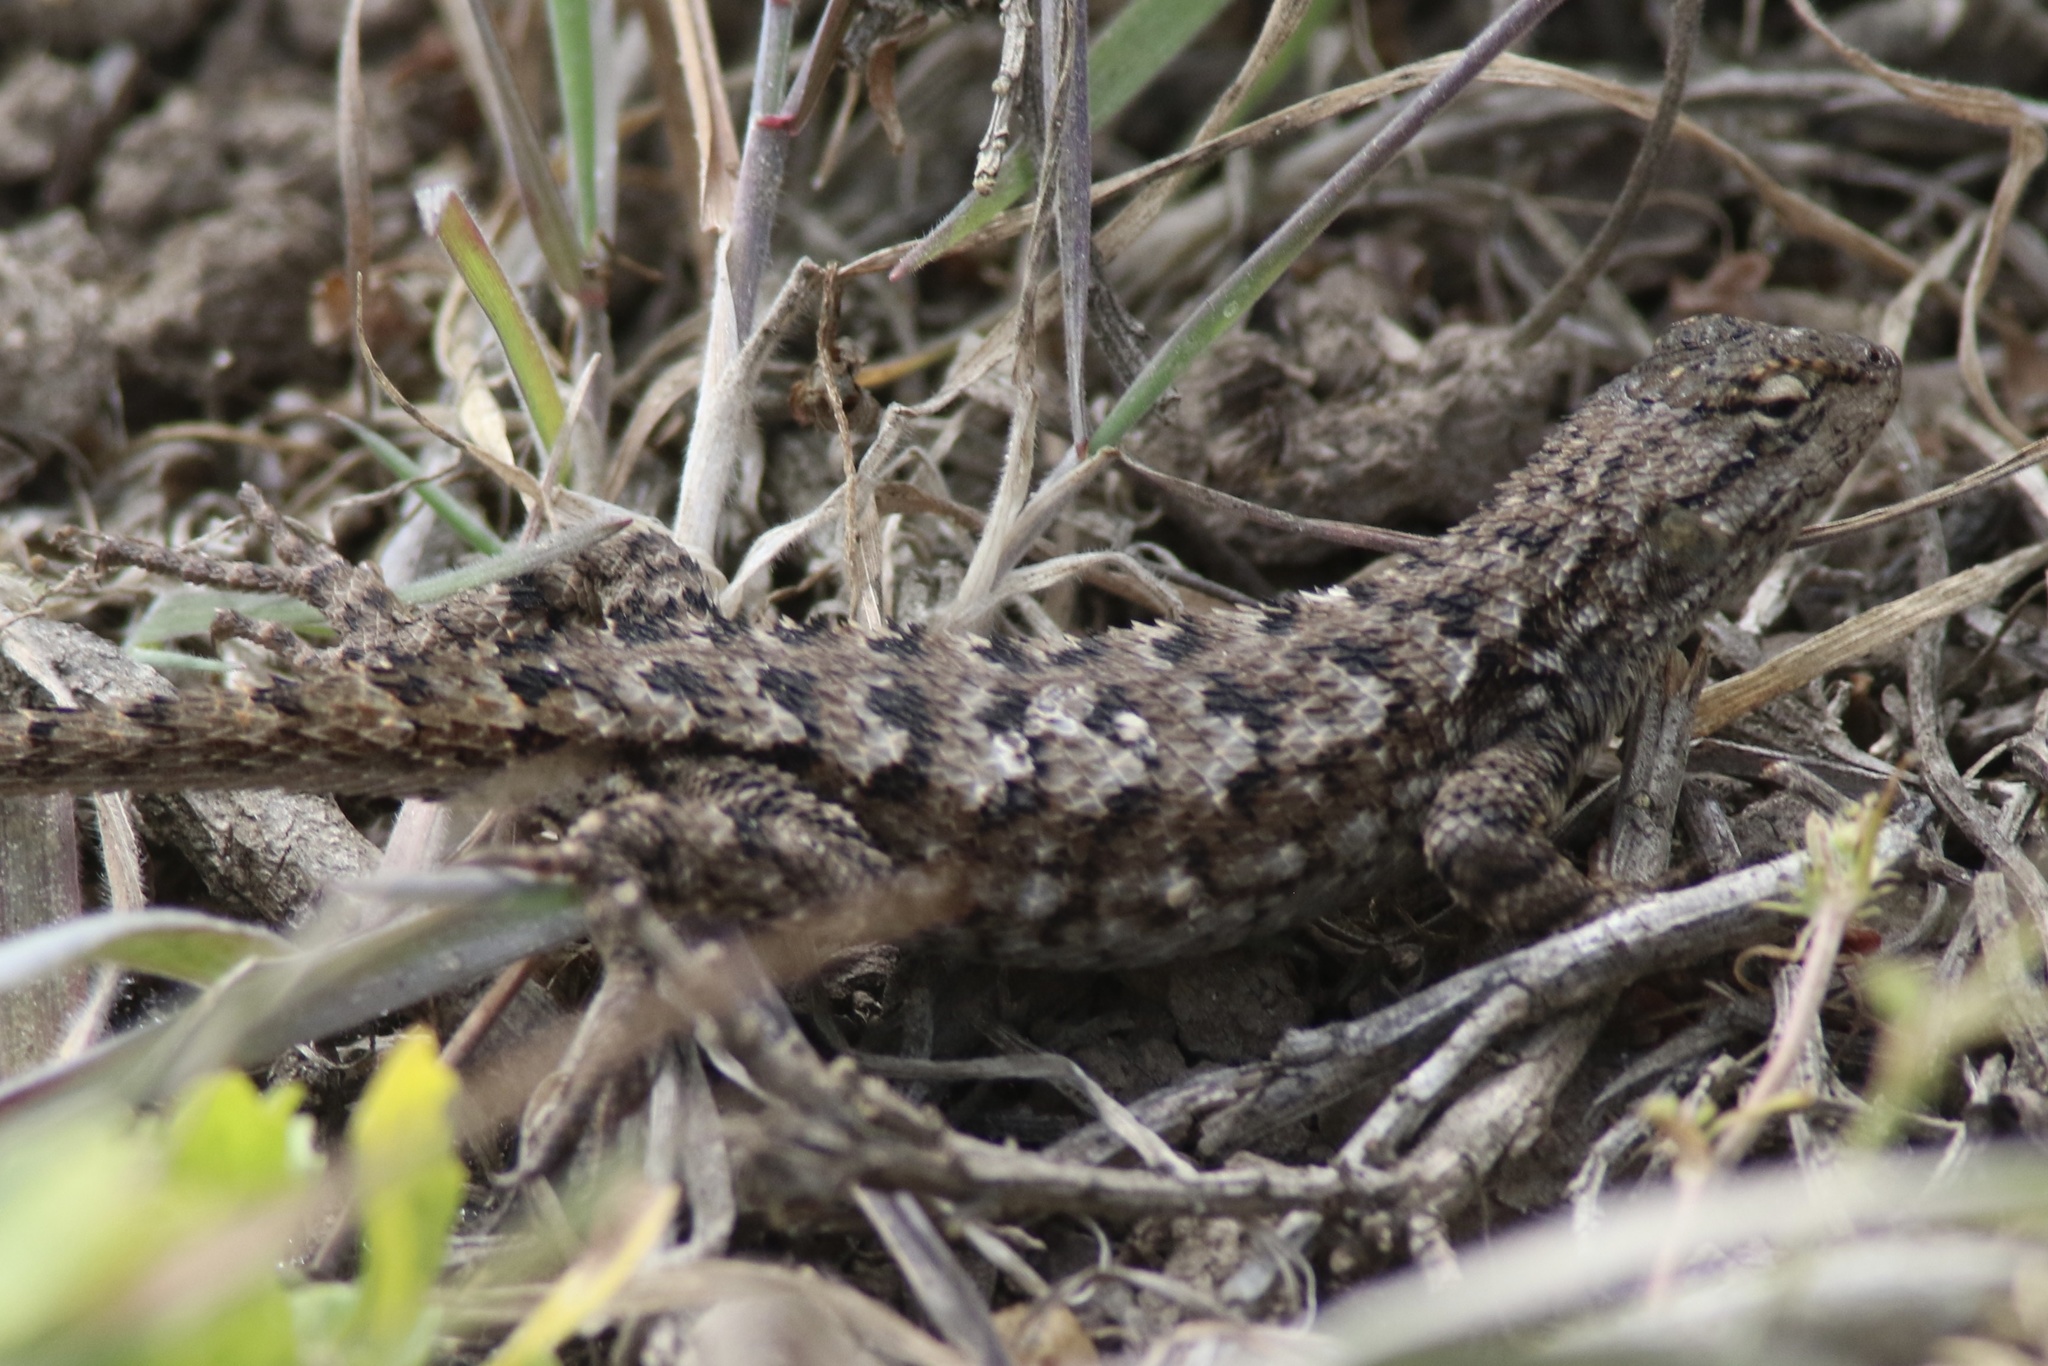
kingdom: Animalia
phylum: Chordata
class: Squamata
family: Phrynosomatidae
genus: Sceloporus
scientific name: Sceloporus occidentalis
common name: Western fence lizard
